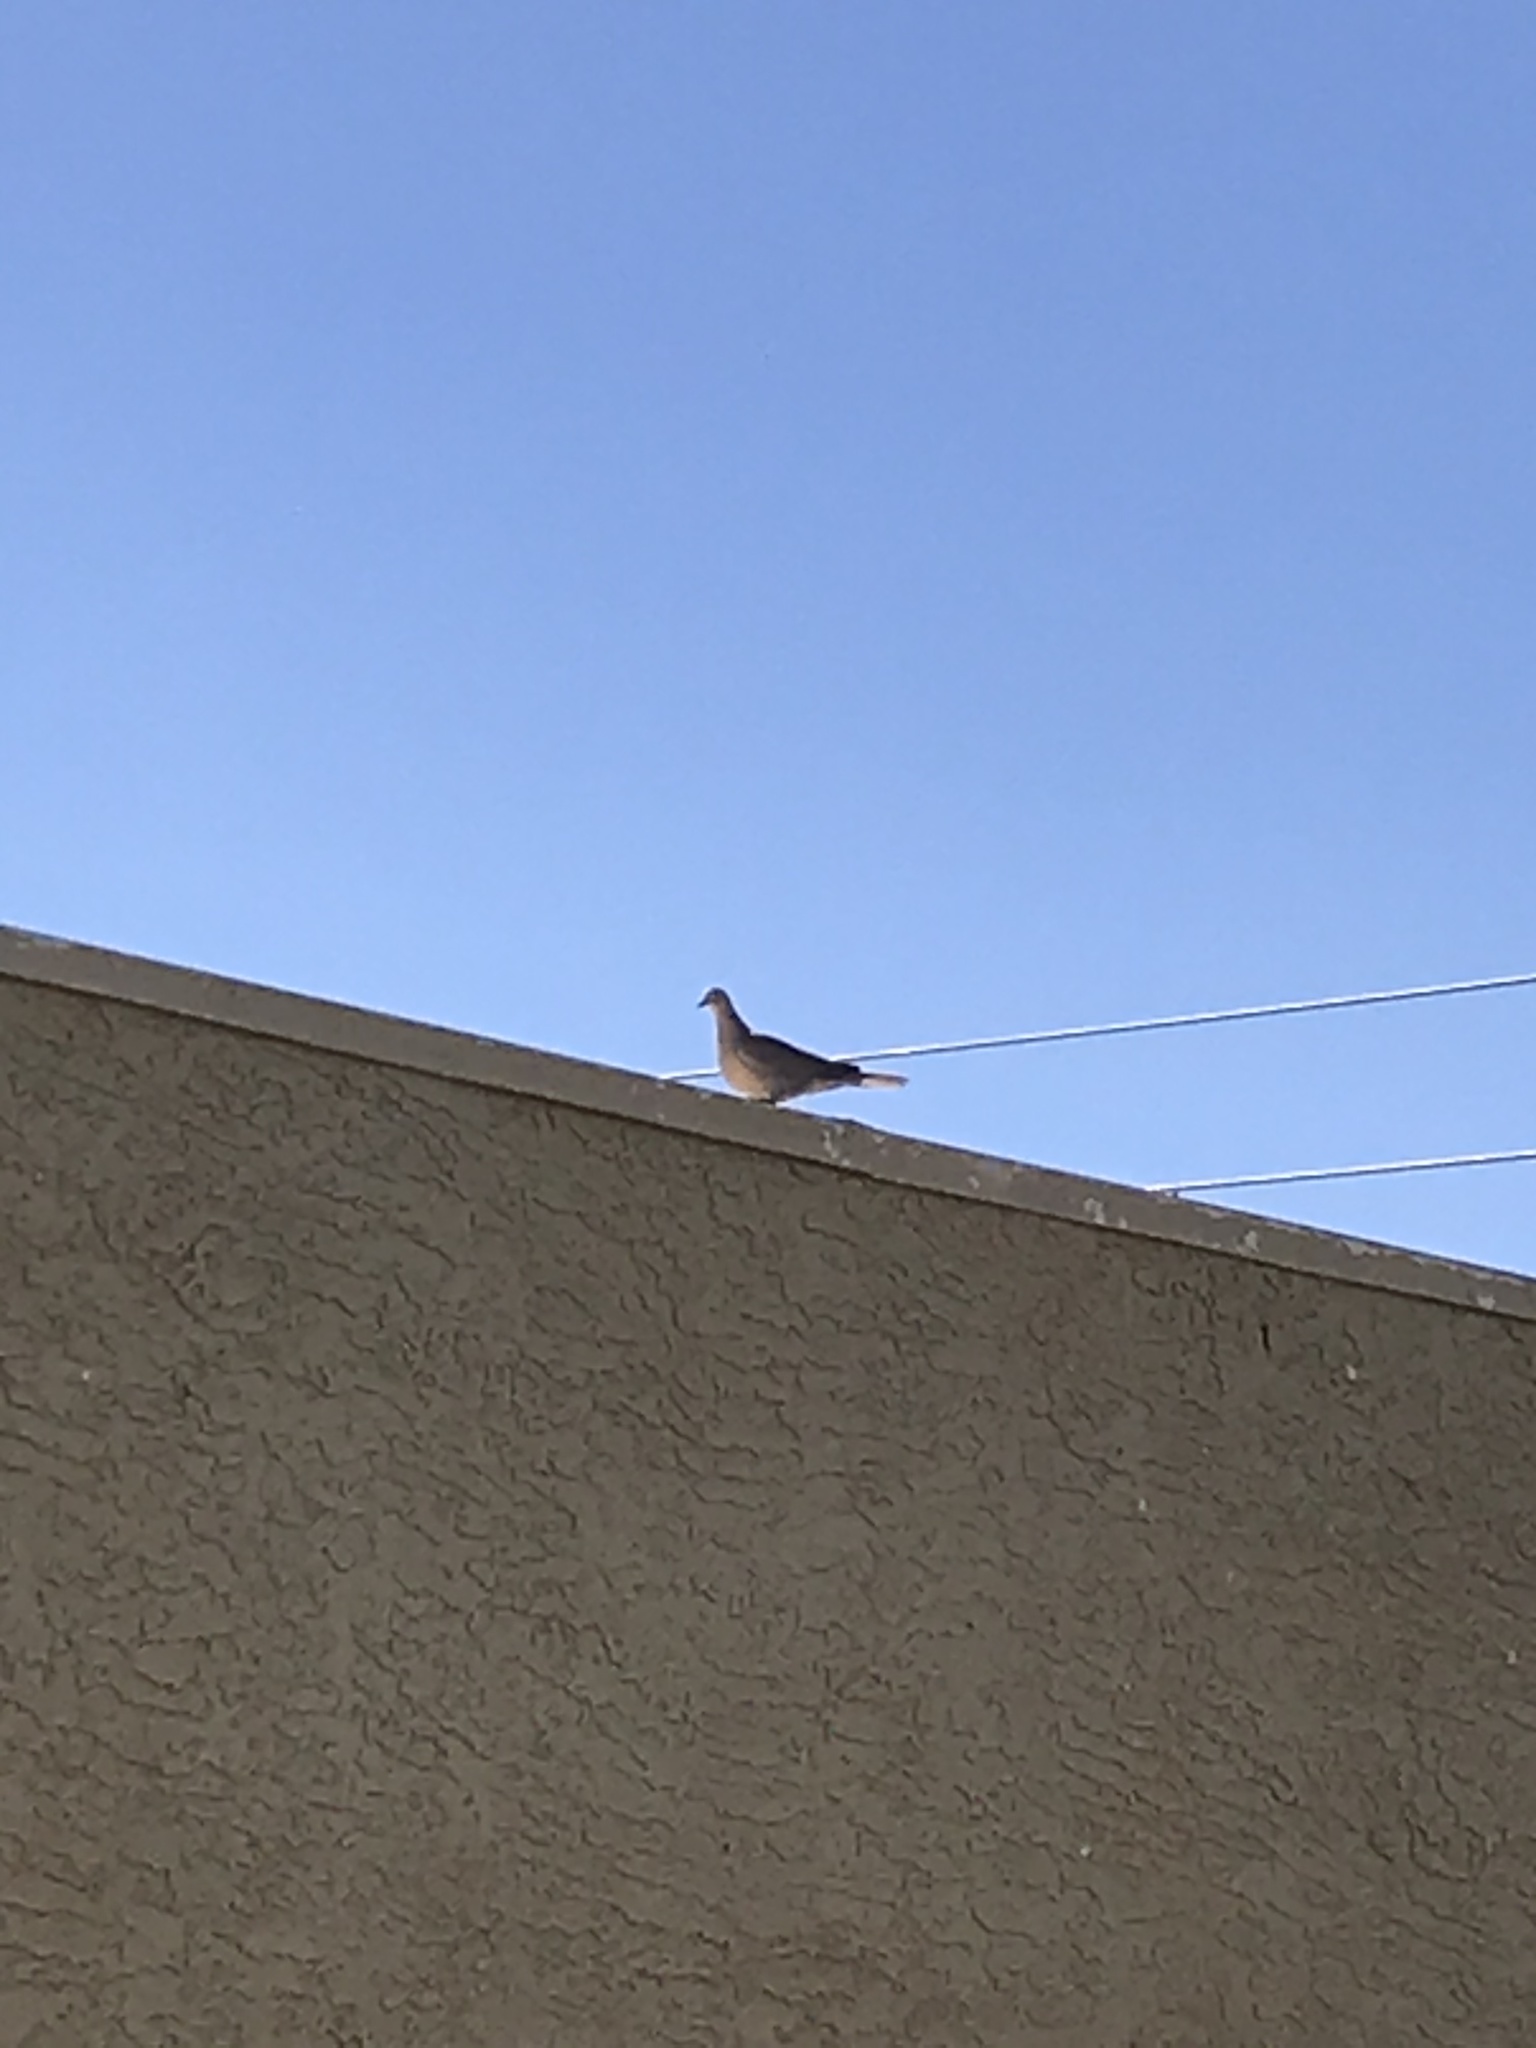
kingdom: Animalia
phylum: Chordata
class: Aves
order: Columbiformes
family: Columbidae
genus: Streptopelia
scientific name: Streptopelia decaocto
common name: Eurasian collared dove
